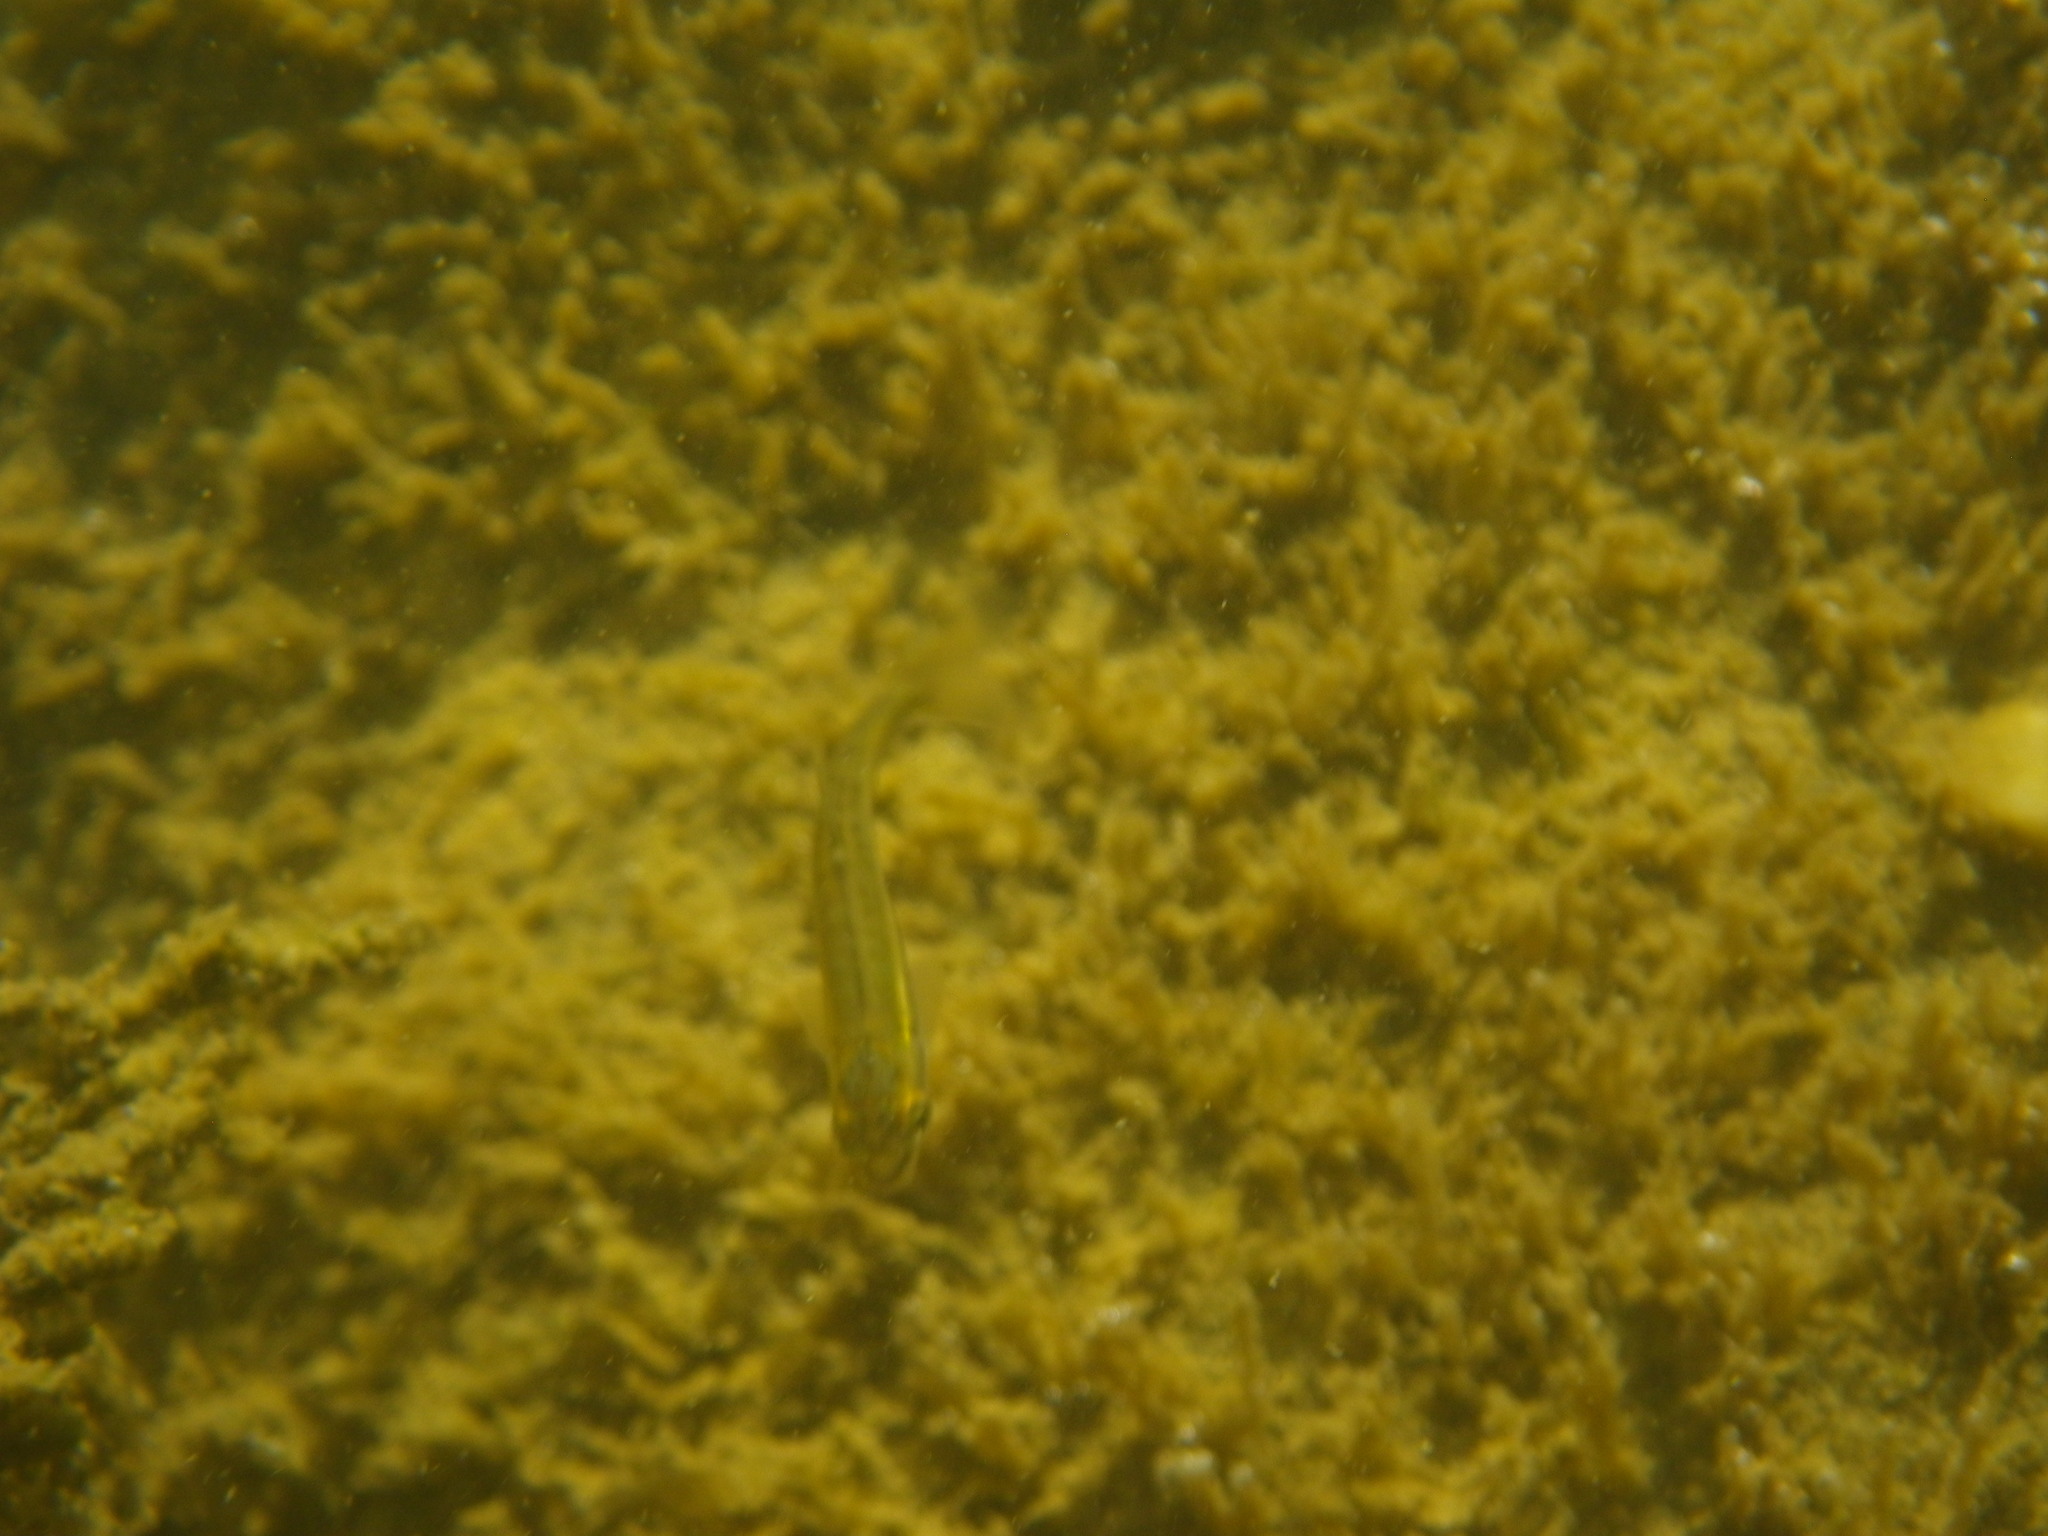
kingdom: Animalia
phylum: Chordata
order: Cypriniformes
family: Cyprinidae
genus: Phoxinus
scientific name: Phoxinus septimaniae
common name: Languedoc minnow
